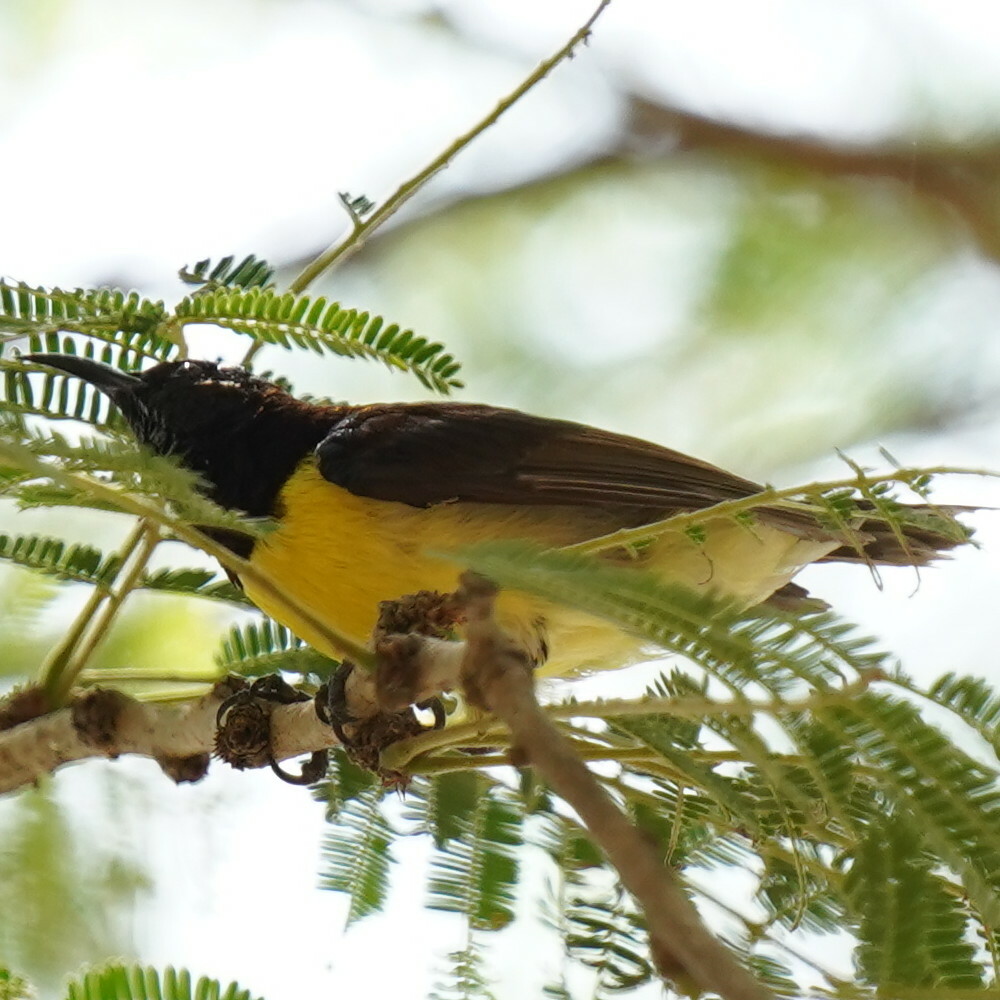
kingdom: Animalia
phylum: Chordata
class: Aves
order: Passeriformes
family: Nectariniidae
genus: Leptocoma
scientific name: Leptocoma zeylonica
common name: Purple-rumped sunbird
